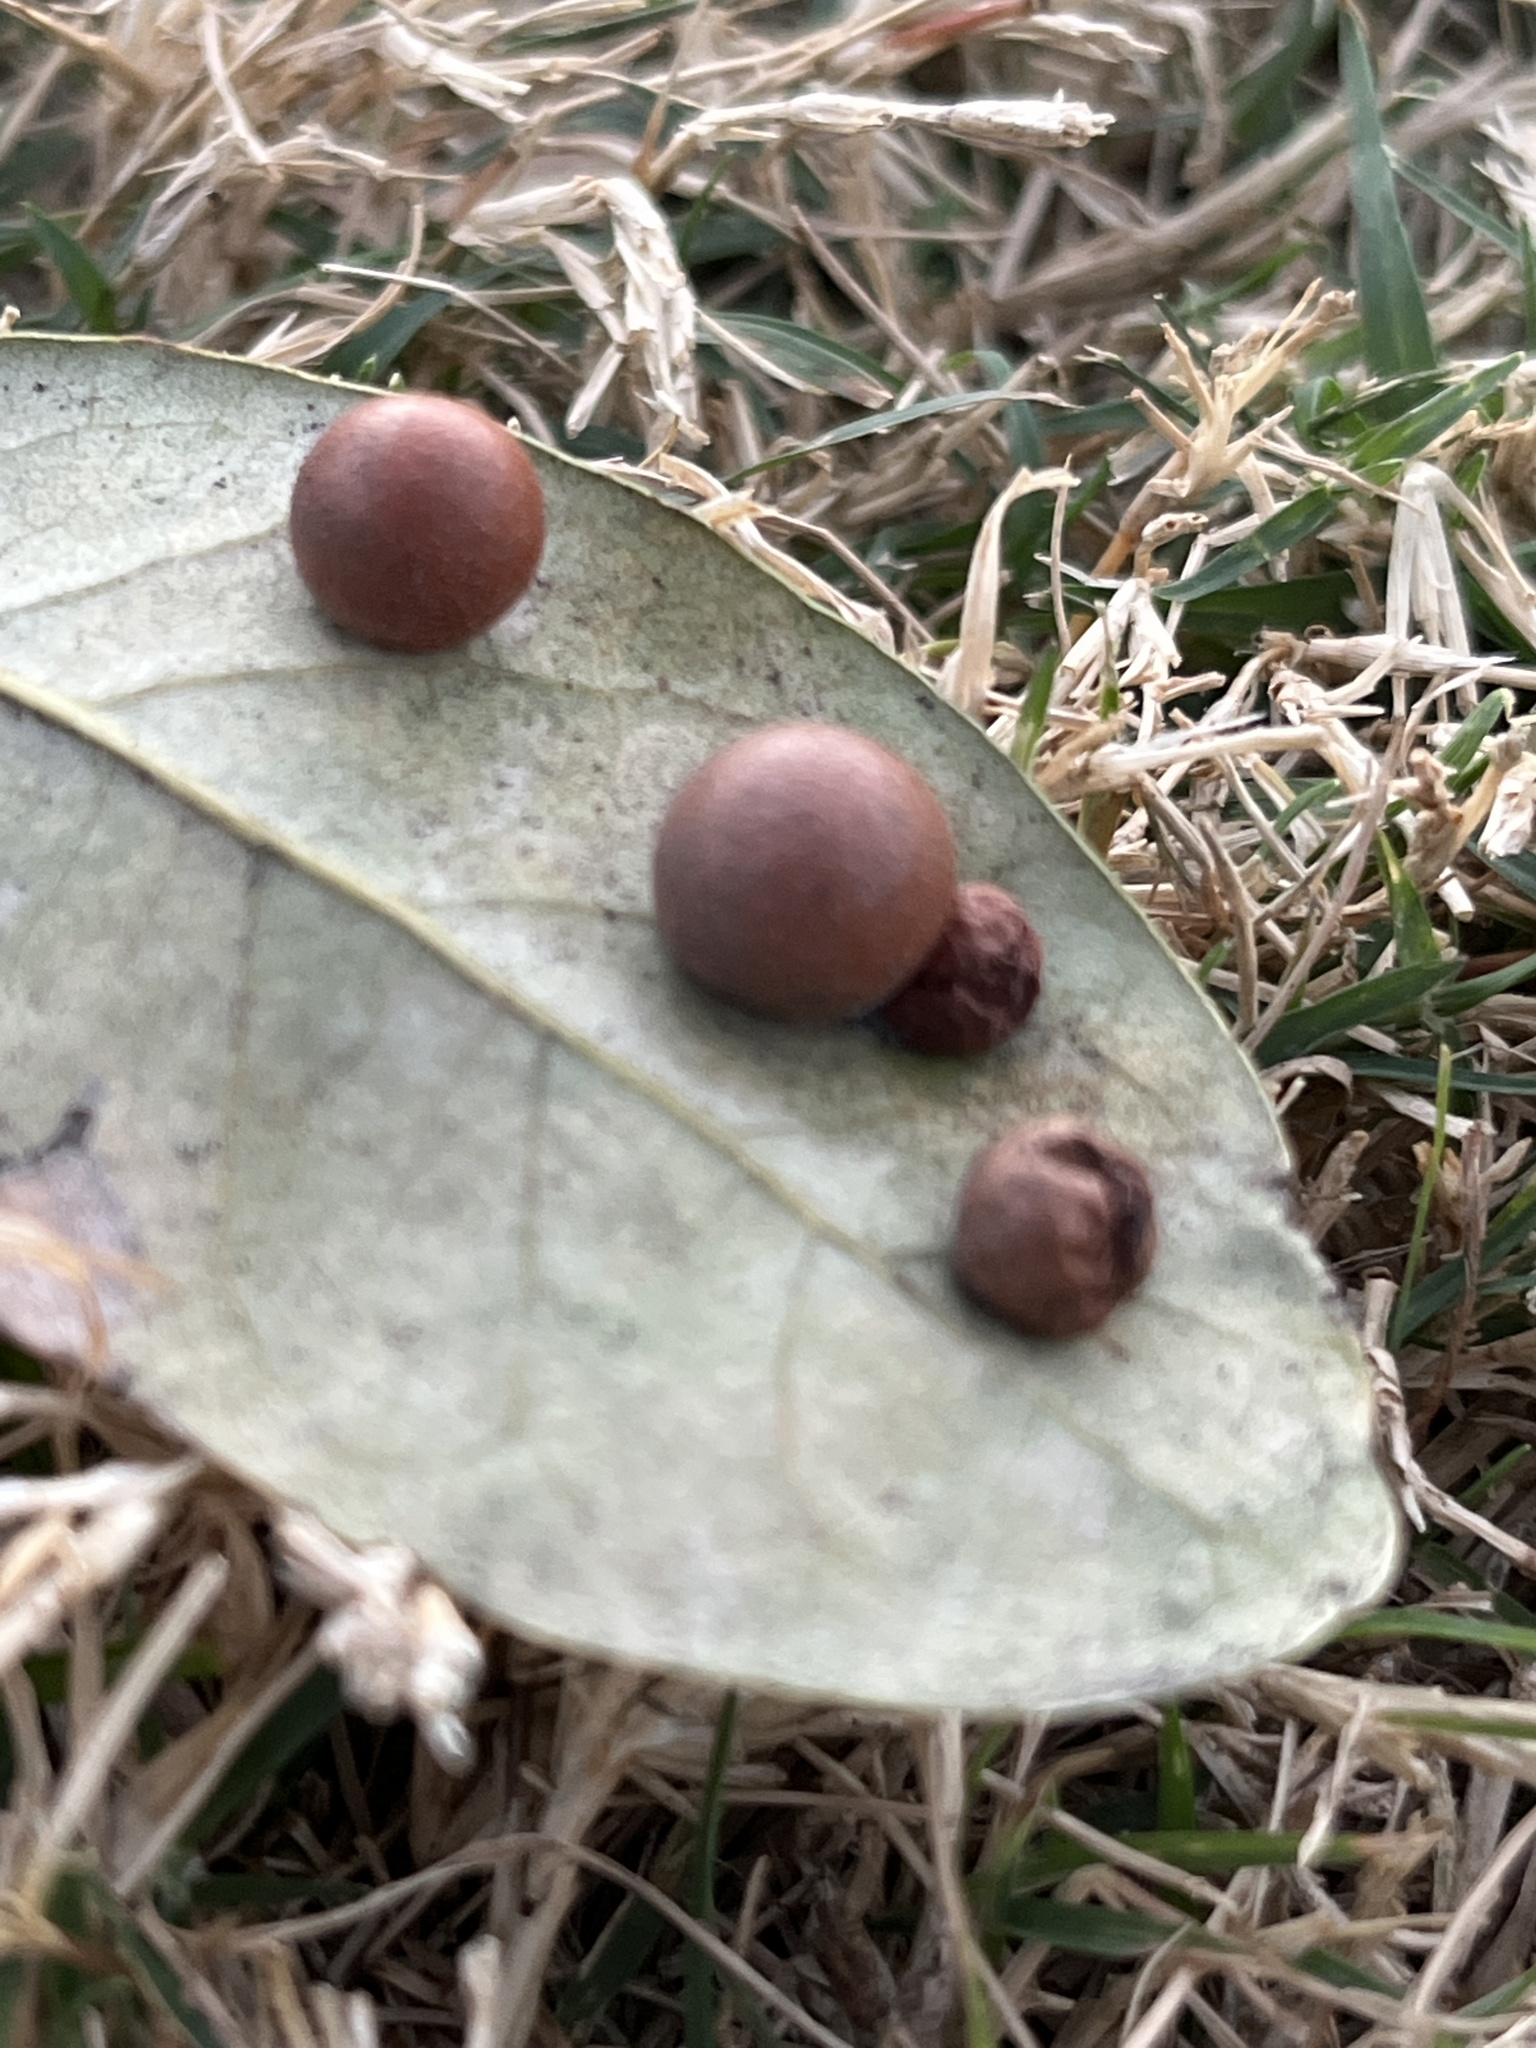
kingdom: Animalia
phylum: Arthropoda
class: Insecta
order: Hymenoptera
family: Cynipidae
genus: Belonocnema
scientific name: Belonocnema kinseyi
